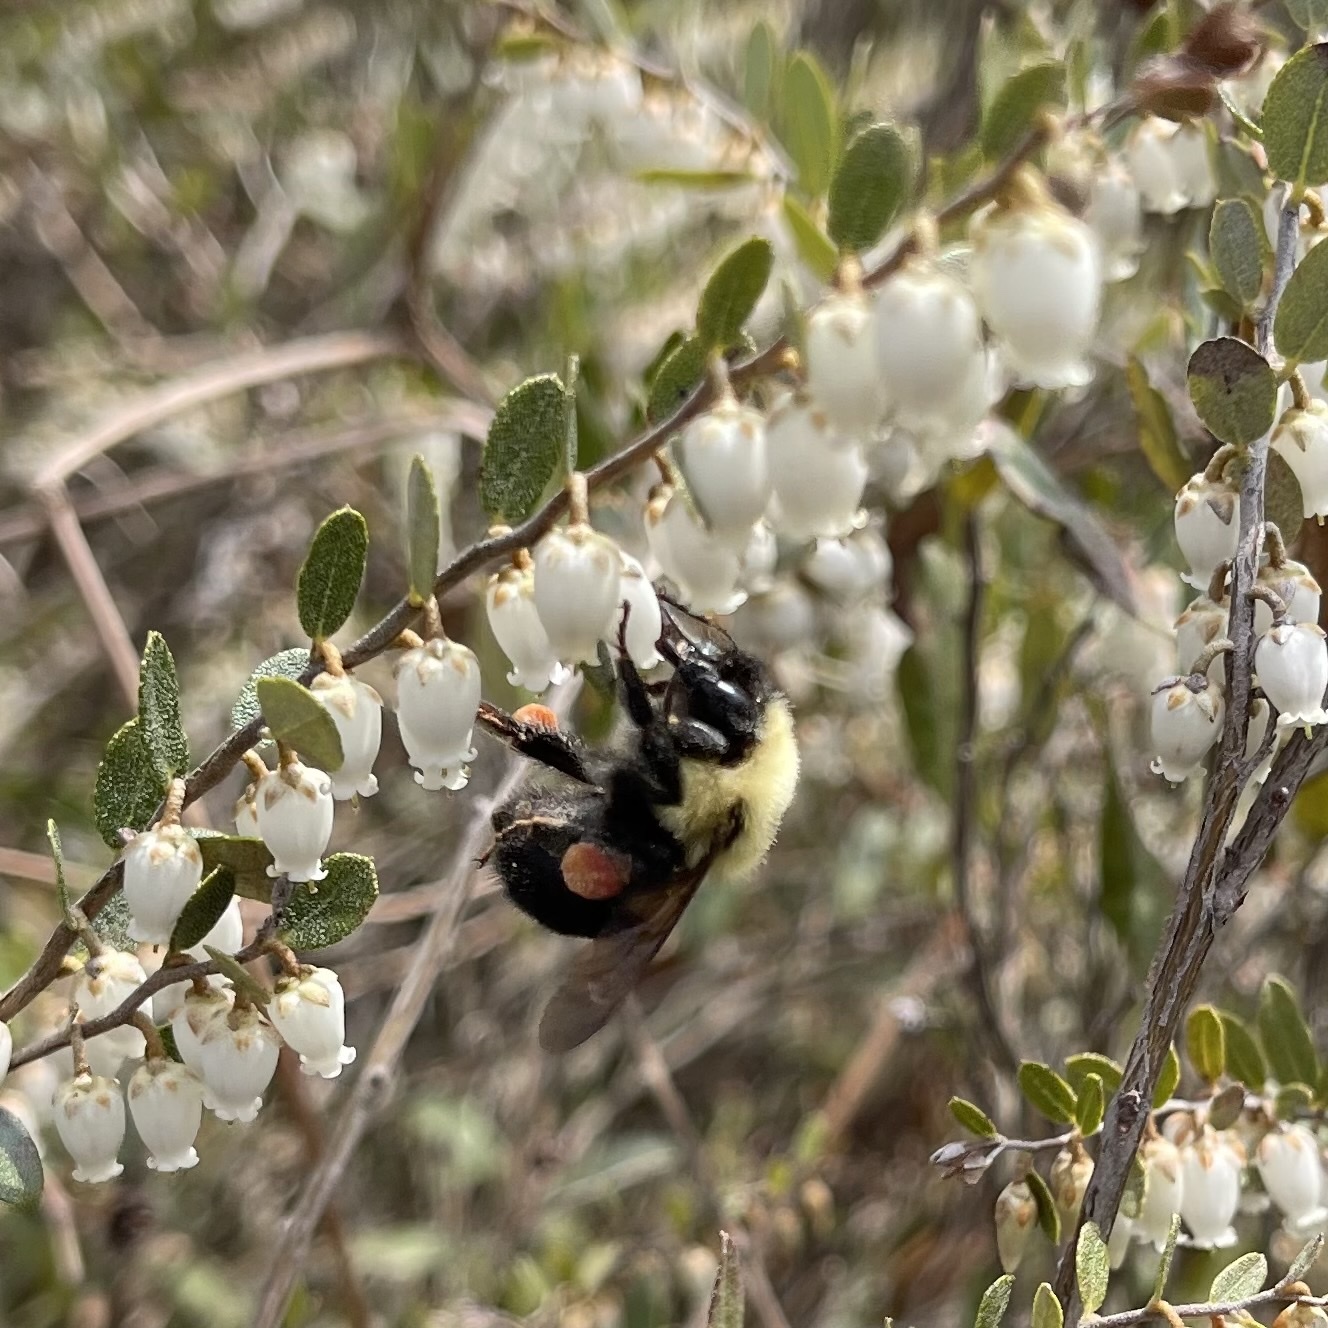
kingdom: Animalia
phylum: Arthropoda
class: Insecta
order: Hymenoptera
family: Apidae
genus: Bombus
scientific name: Bombus bimaculatus
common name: Two-spotted bumble bee
